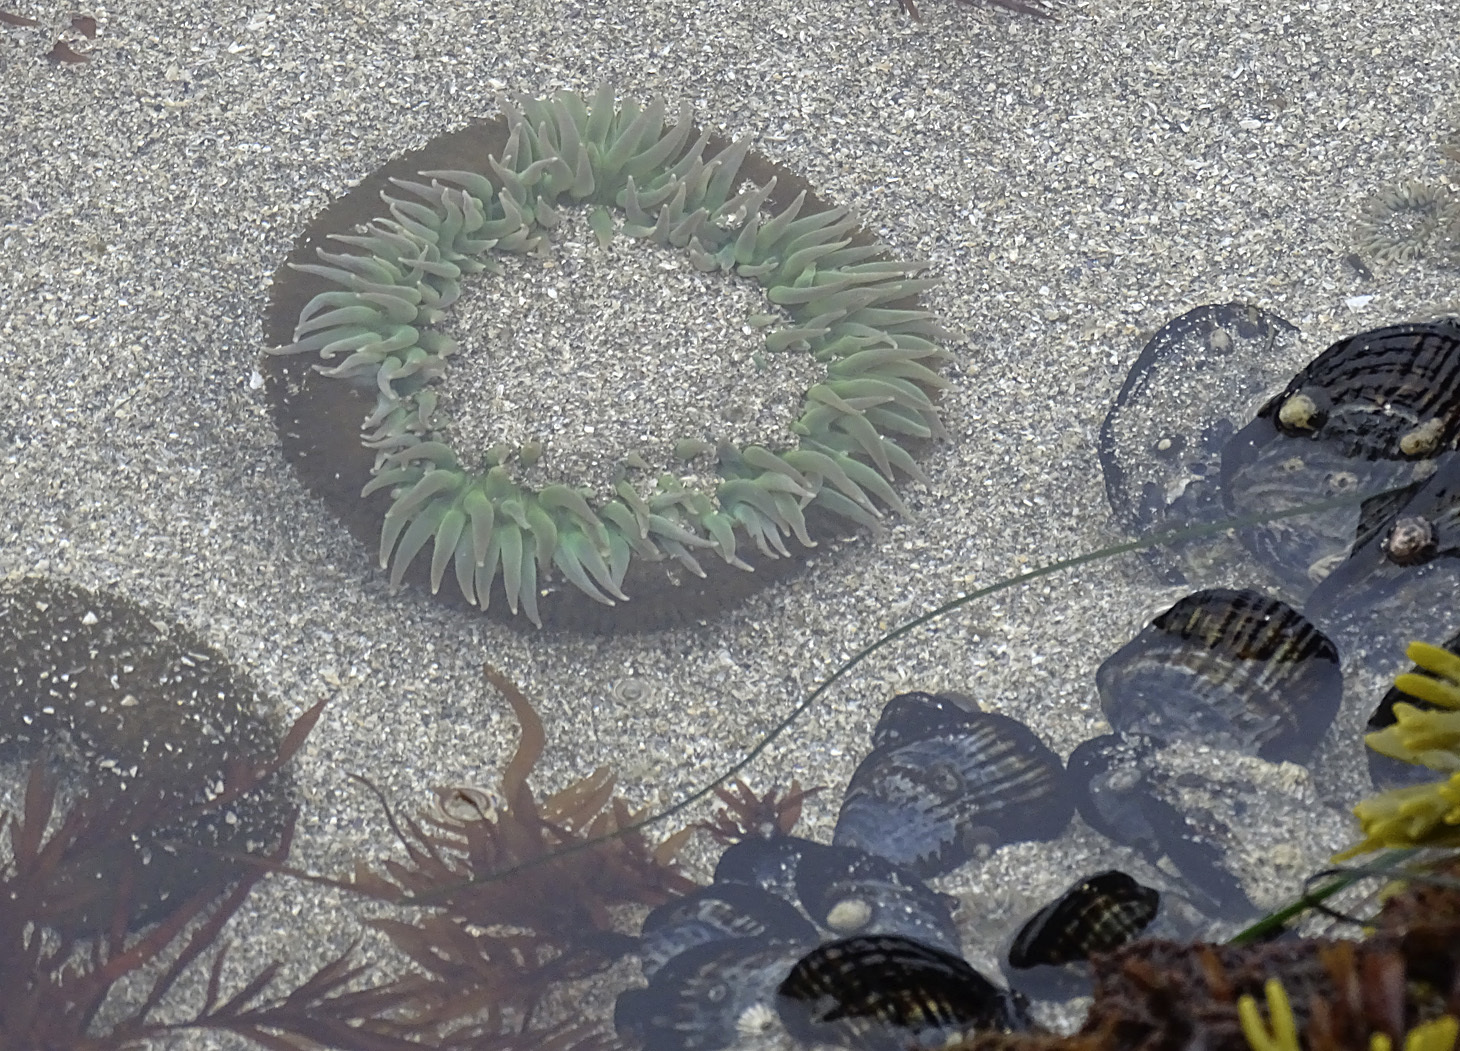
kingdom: Animalia
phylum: Cnidaria
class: Anthozoa
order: Actiniaria
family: Actiniidae
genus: Anthopleura
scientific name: Anthopleura xanthogrammica
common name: Giant green anemone
